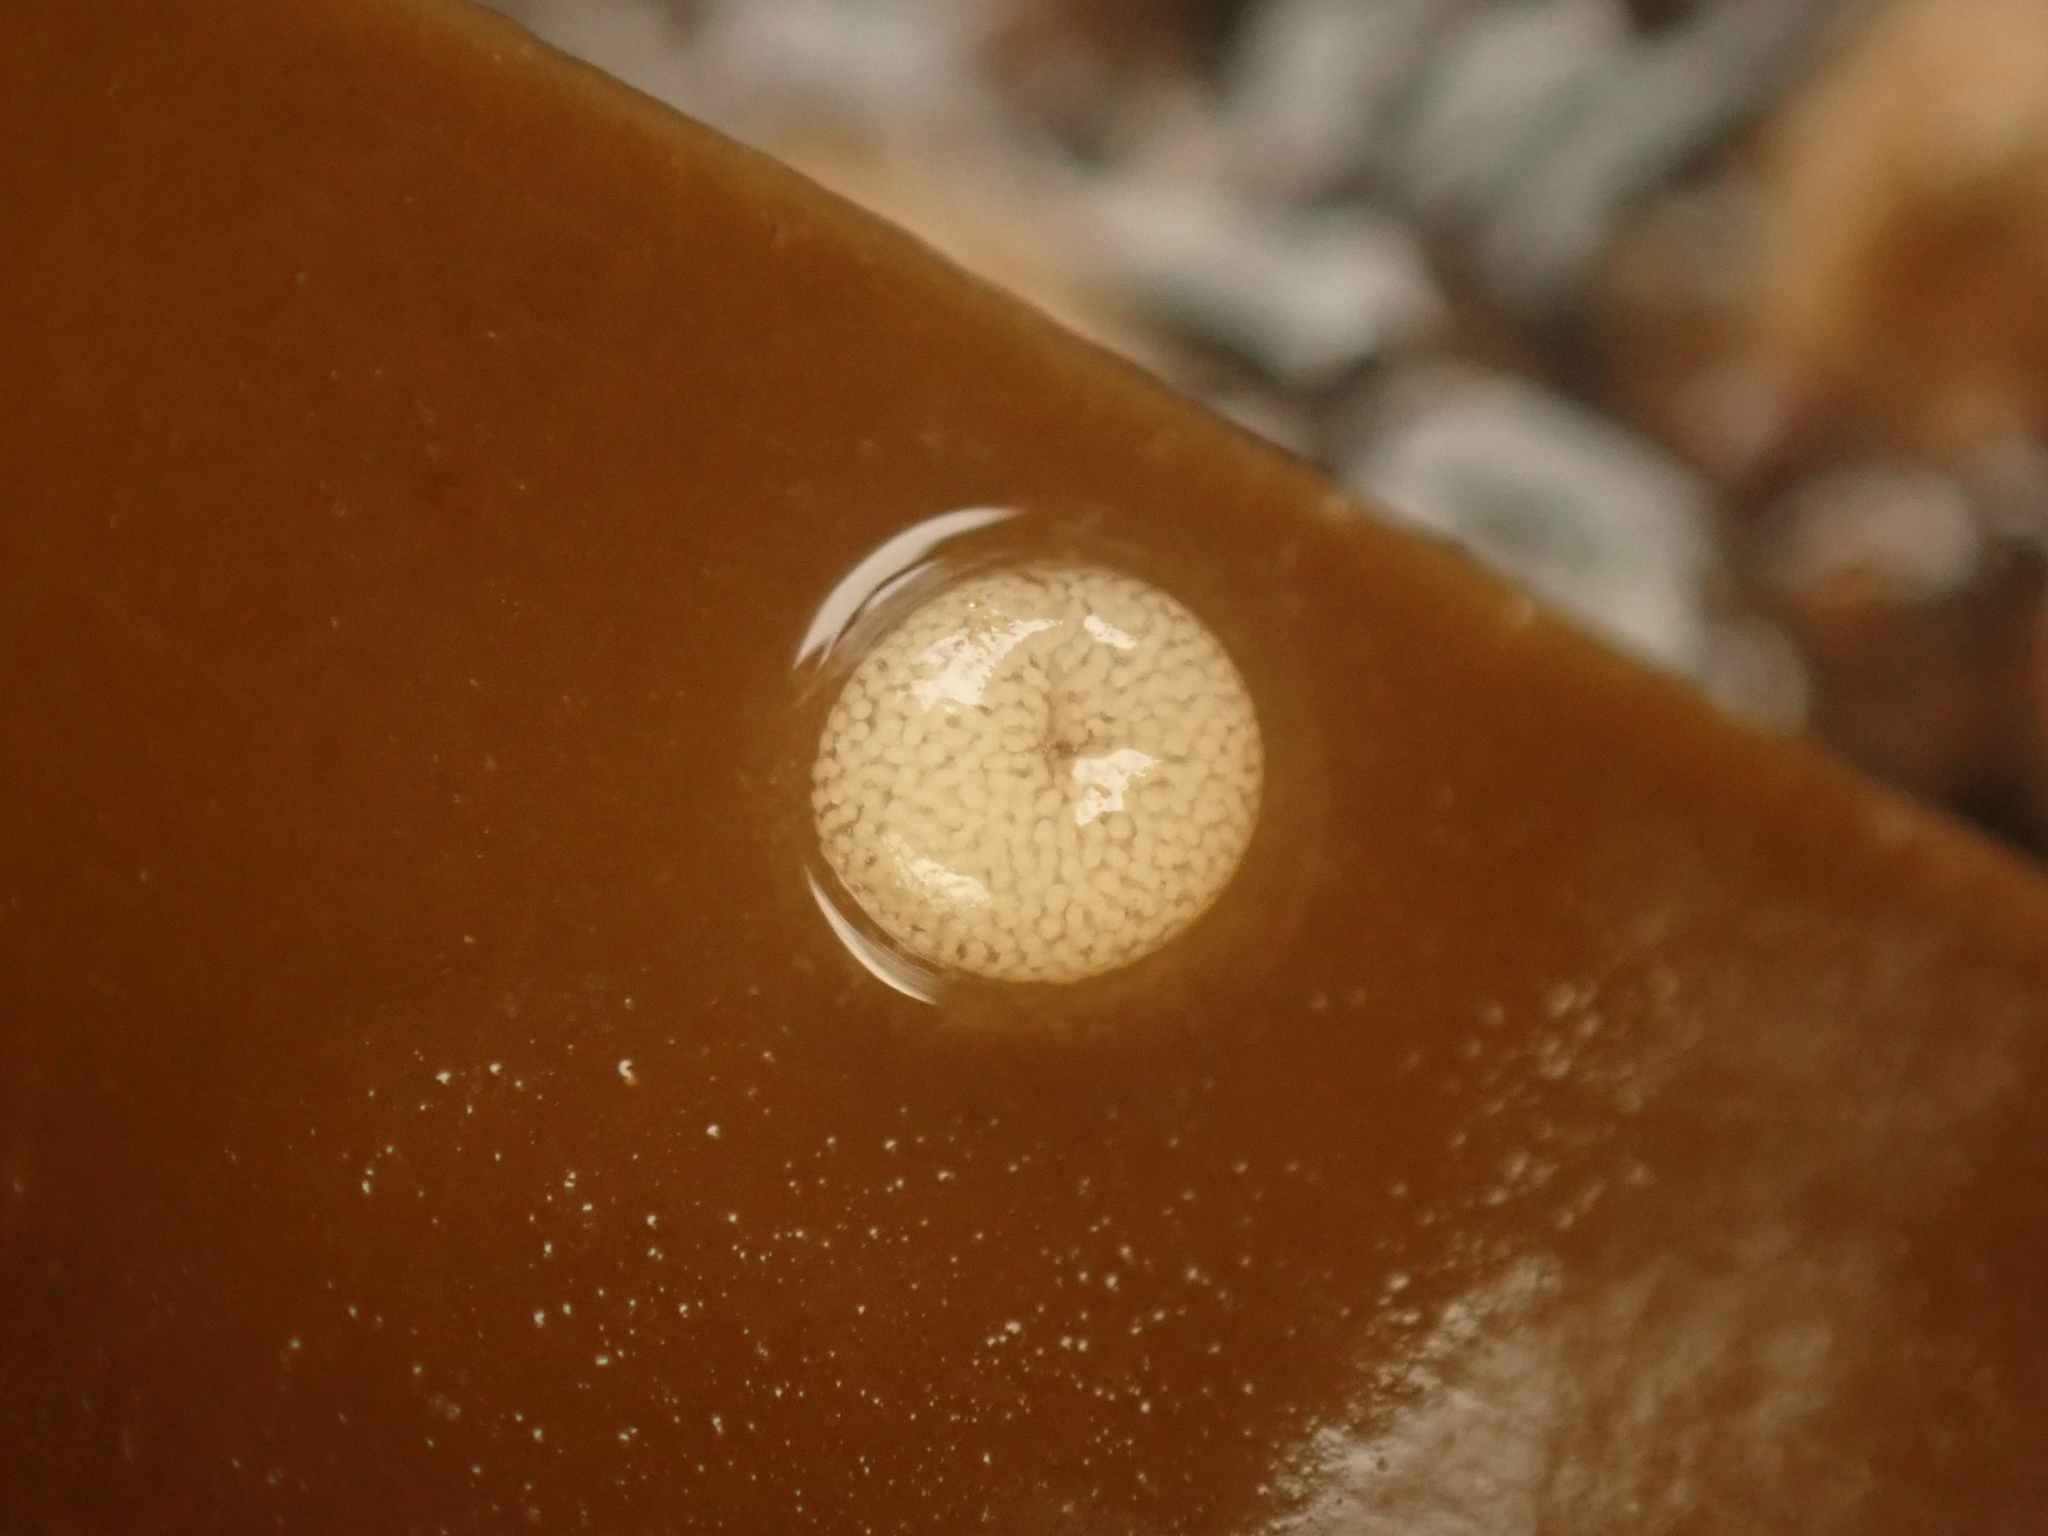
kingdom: Animalia
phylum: Mollusca
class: Gastropoda
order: Littorinimorpha
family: Littorinidae
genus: Lacuna
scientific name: Lacuna vincta
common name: Banded chink shell
